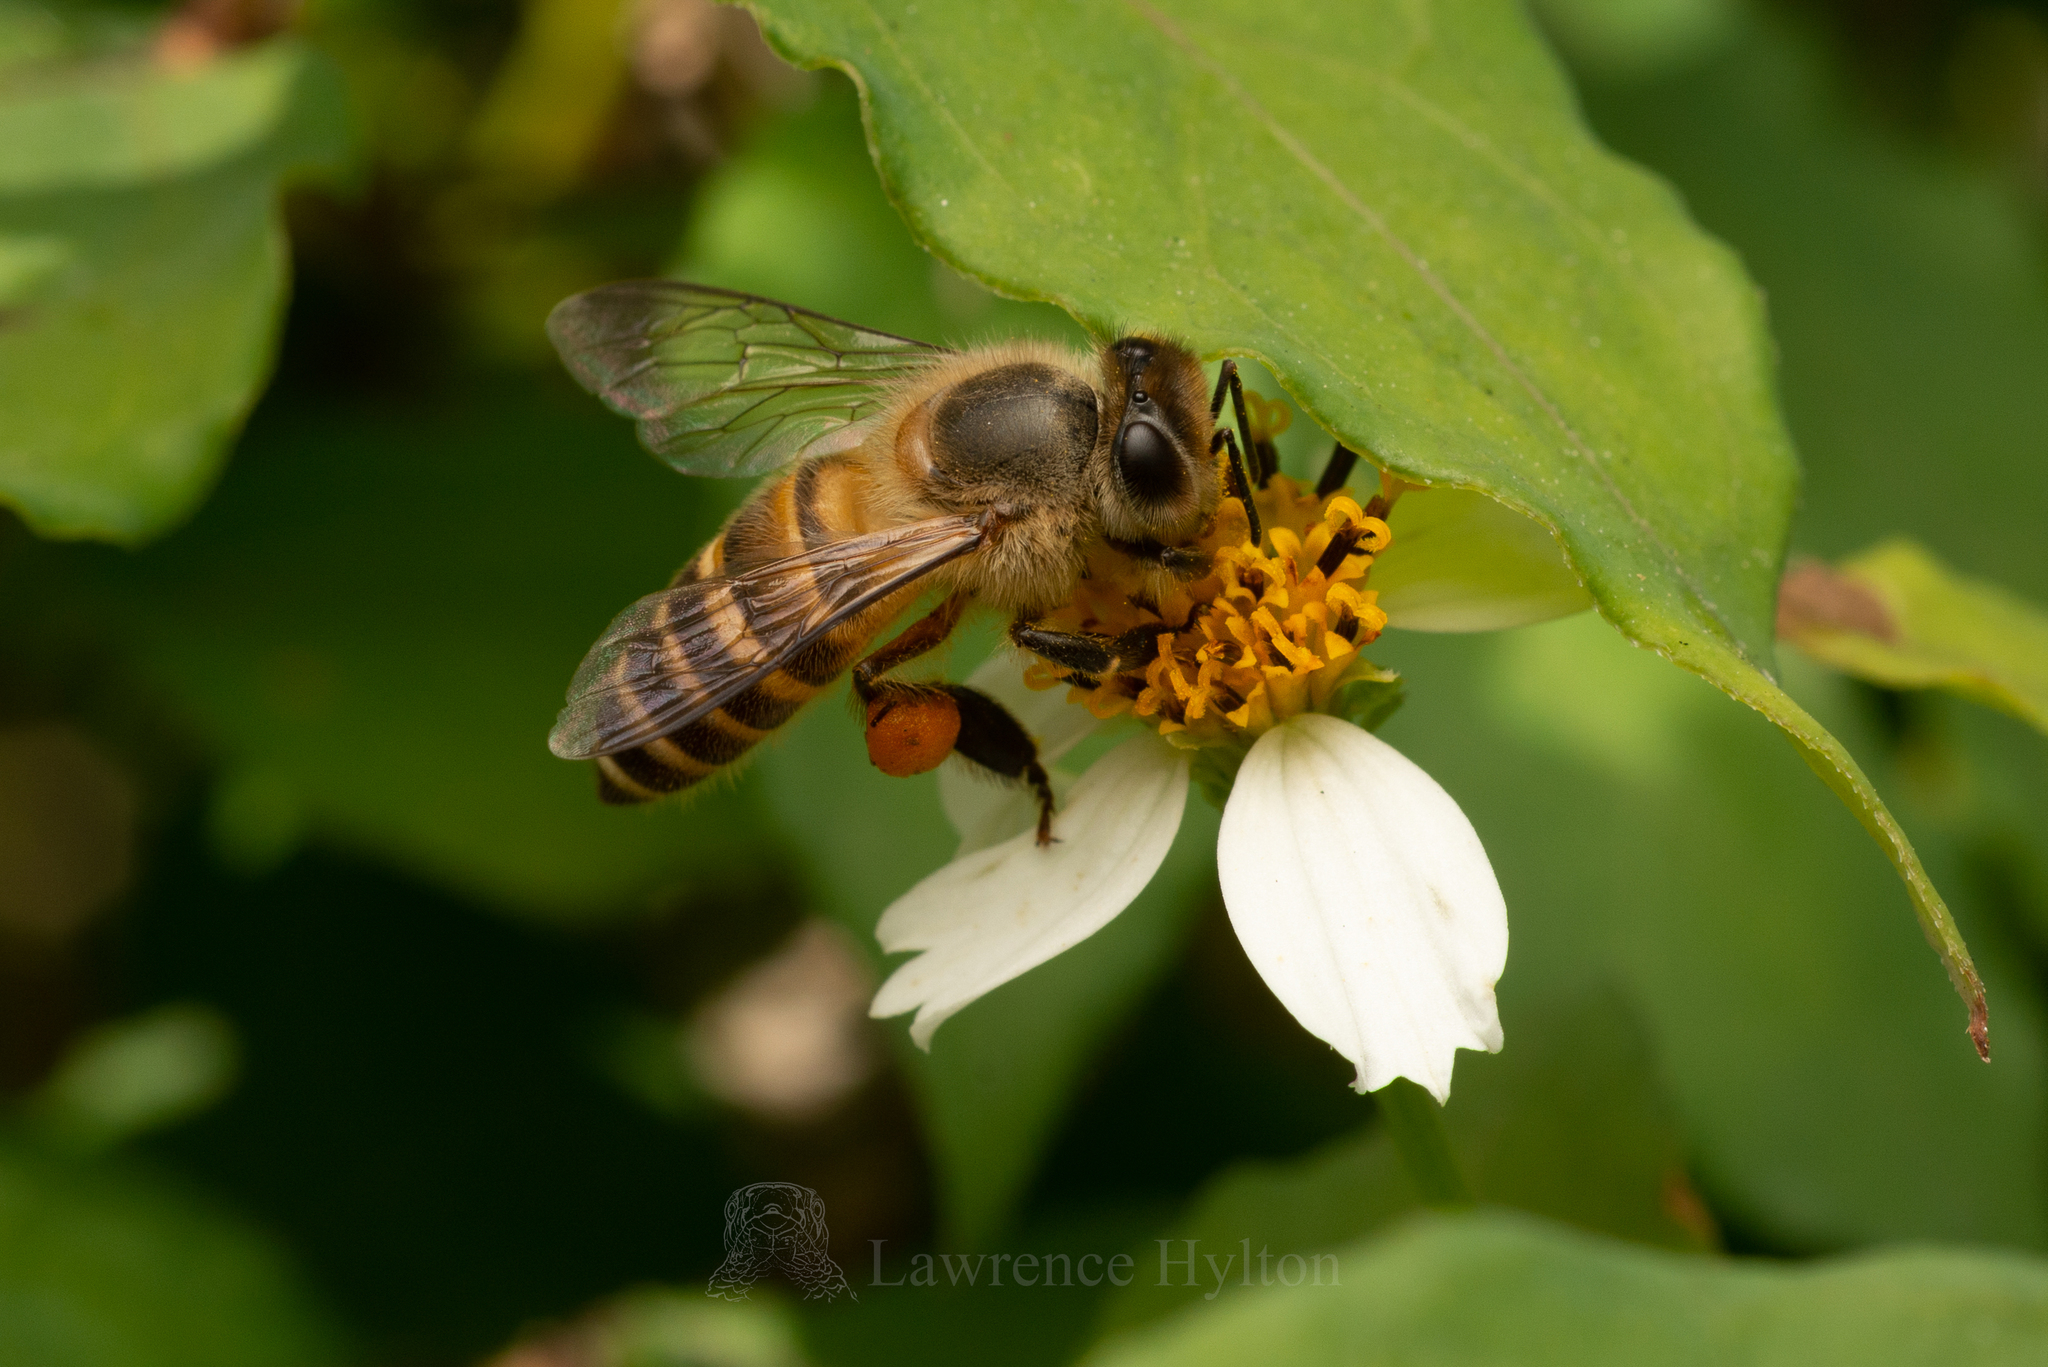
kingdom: Animalia
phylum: Arthropoda
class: Insecta
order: Hymenoptera
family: Apidae
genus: Apis
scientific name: Apis cerana
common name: Honey bee
